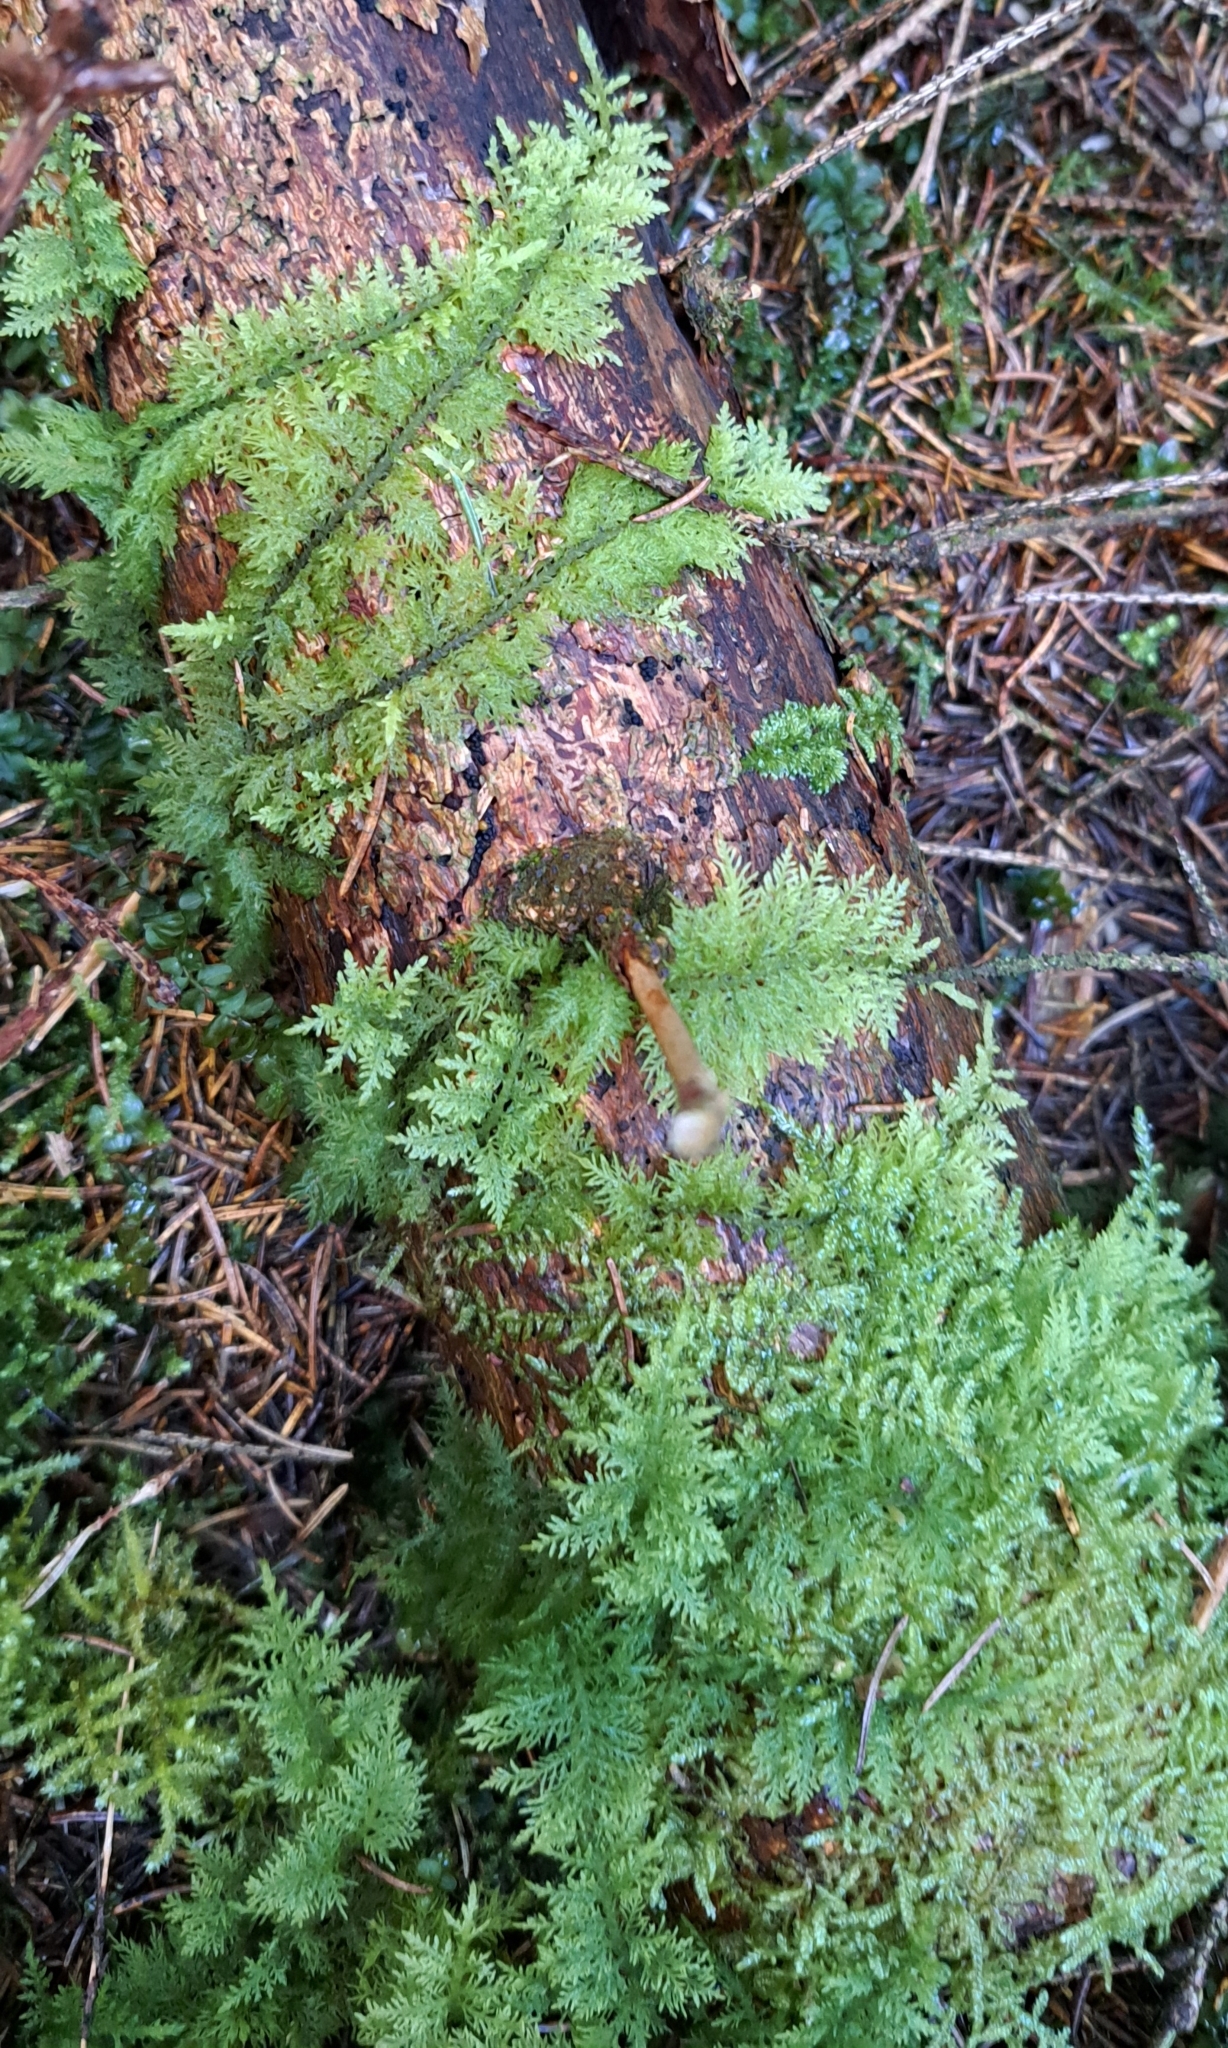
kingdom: Plantae
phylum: Bryophyta
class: Bryopsida
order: Hypnales
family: Thuidiaceae
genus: Thuidium
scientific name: Thuidium tamariscinum
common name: Common tamarisk-moss
